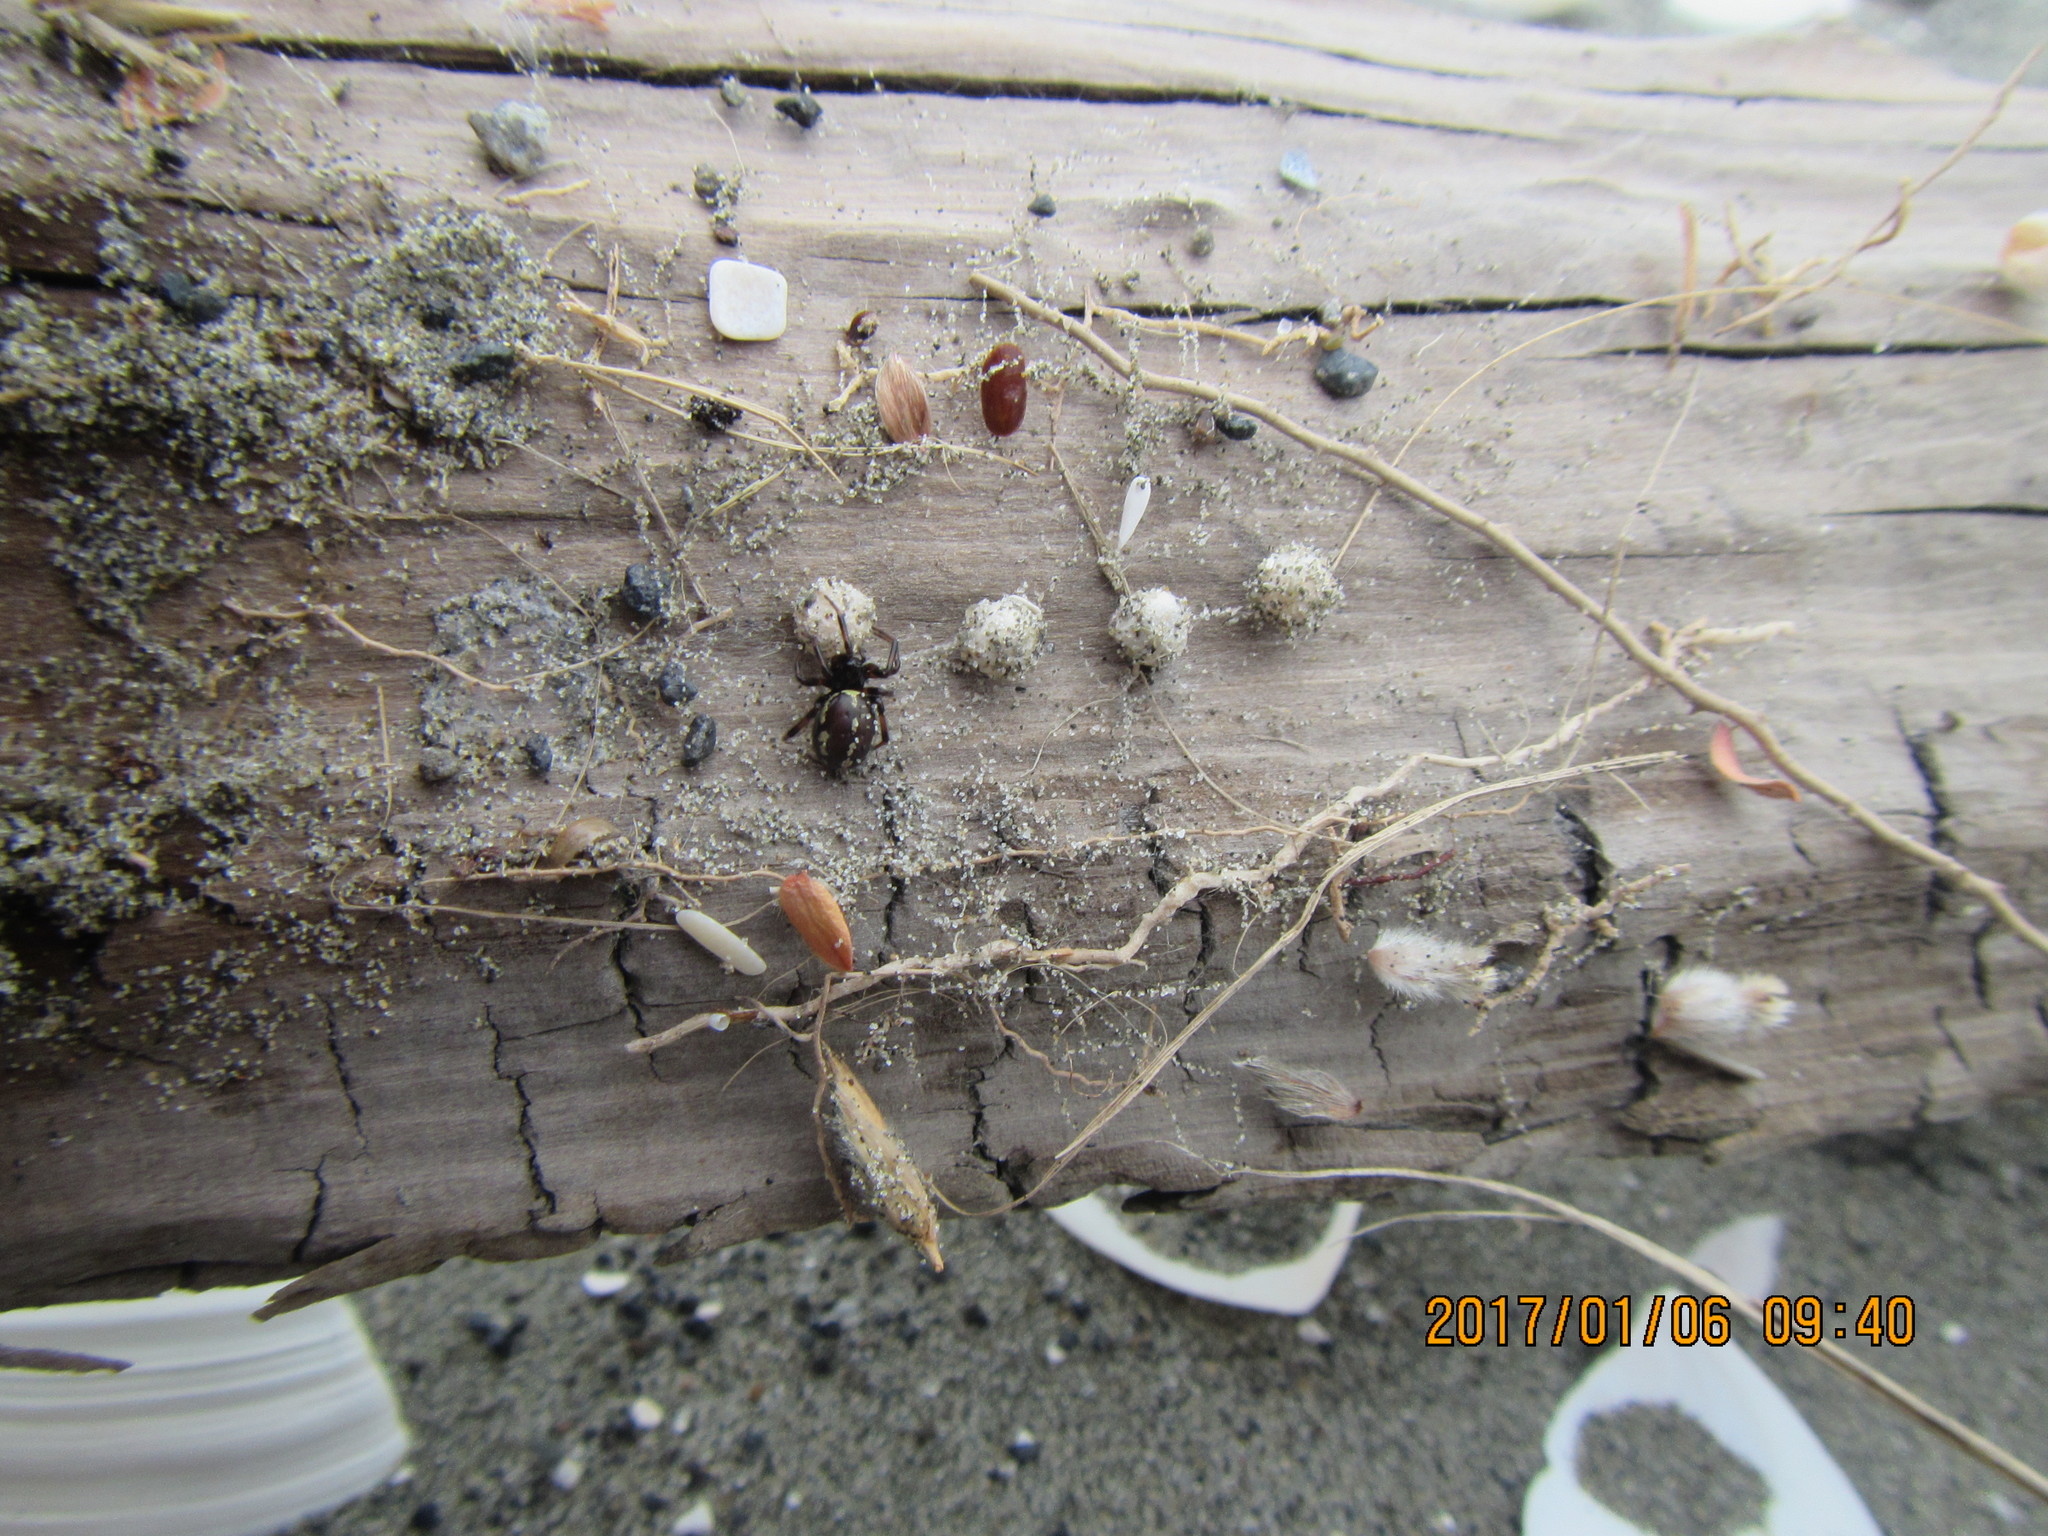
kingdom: Animalia
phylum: Arthropoda
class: Arachnida
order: Araneae
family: Theridiidae
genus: Steatoda
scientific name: Steatoda lepida
